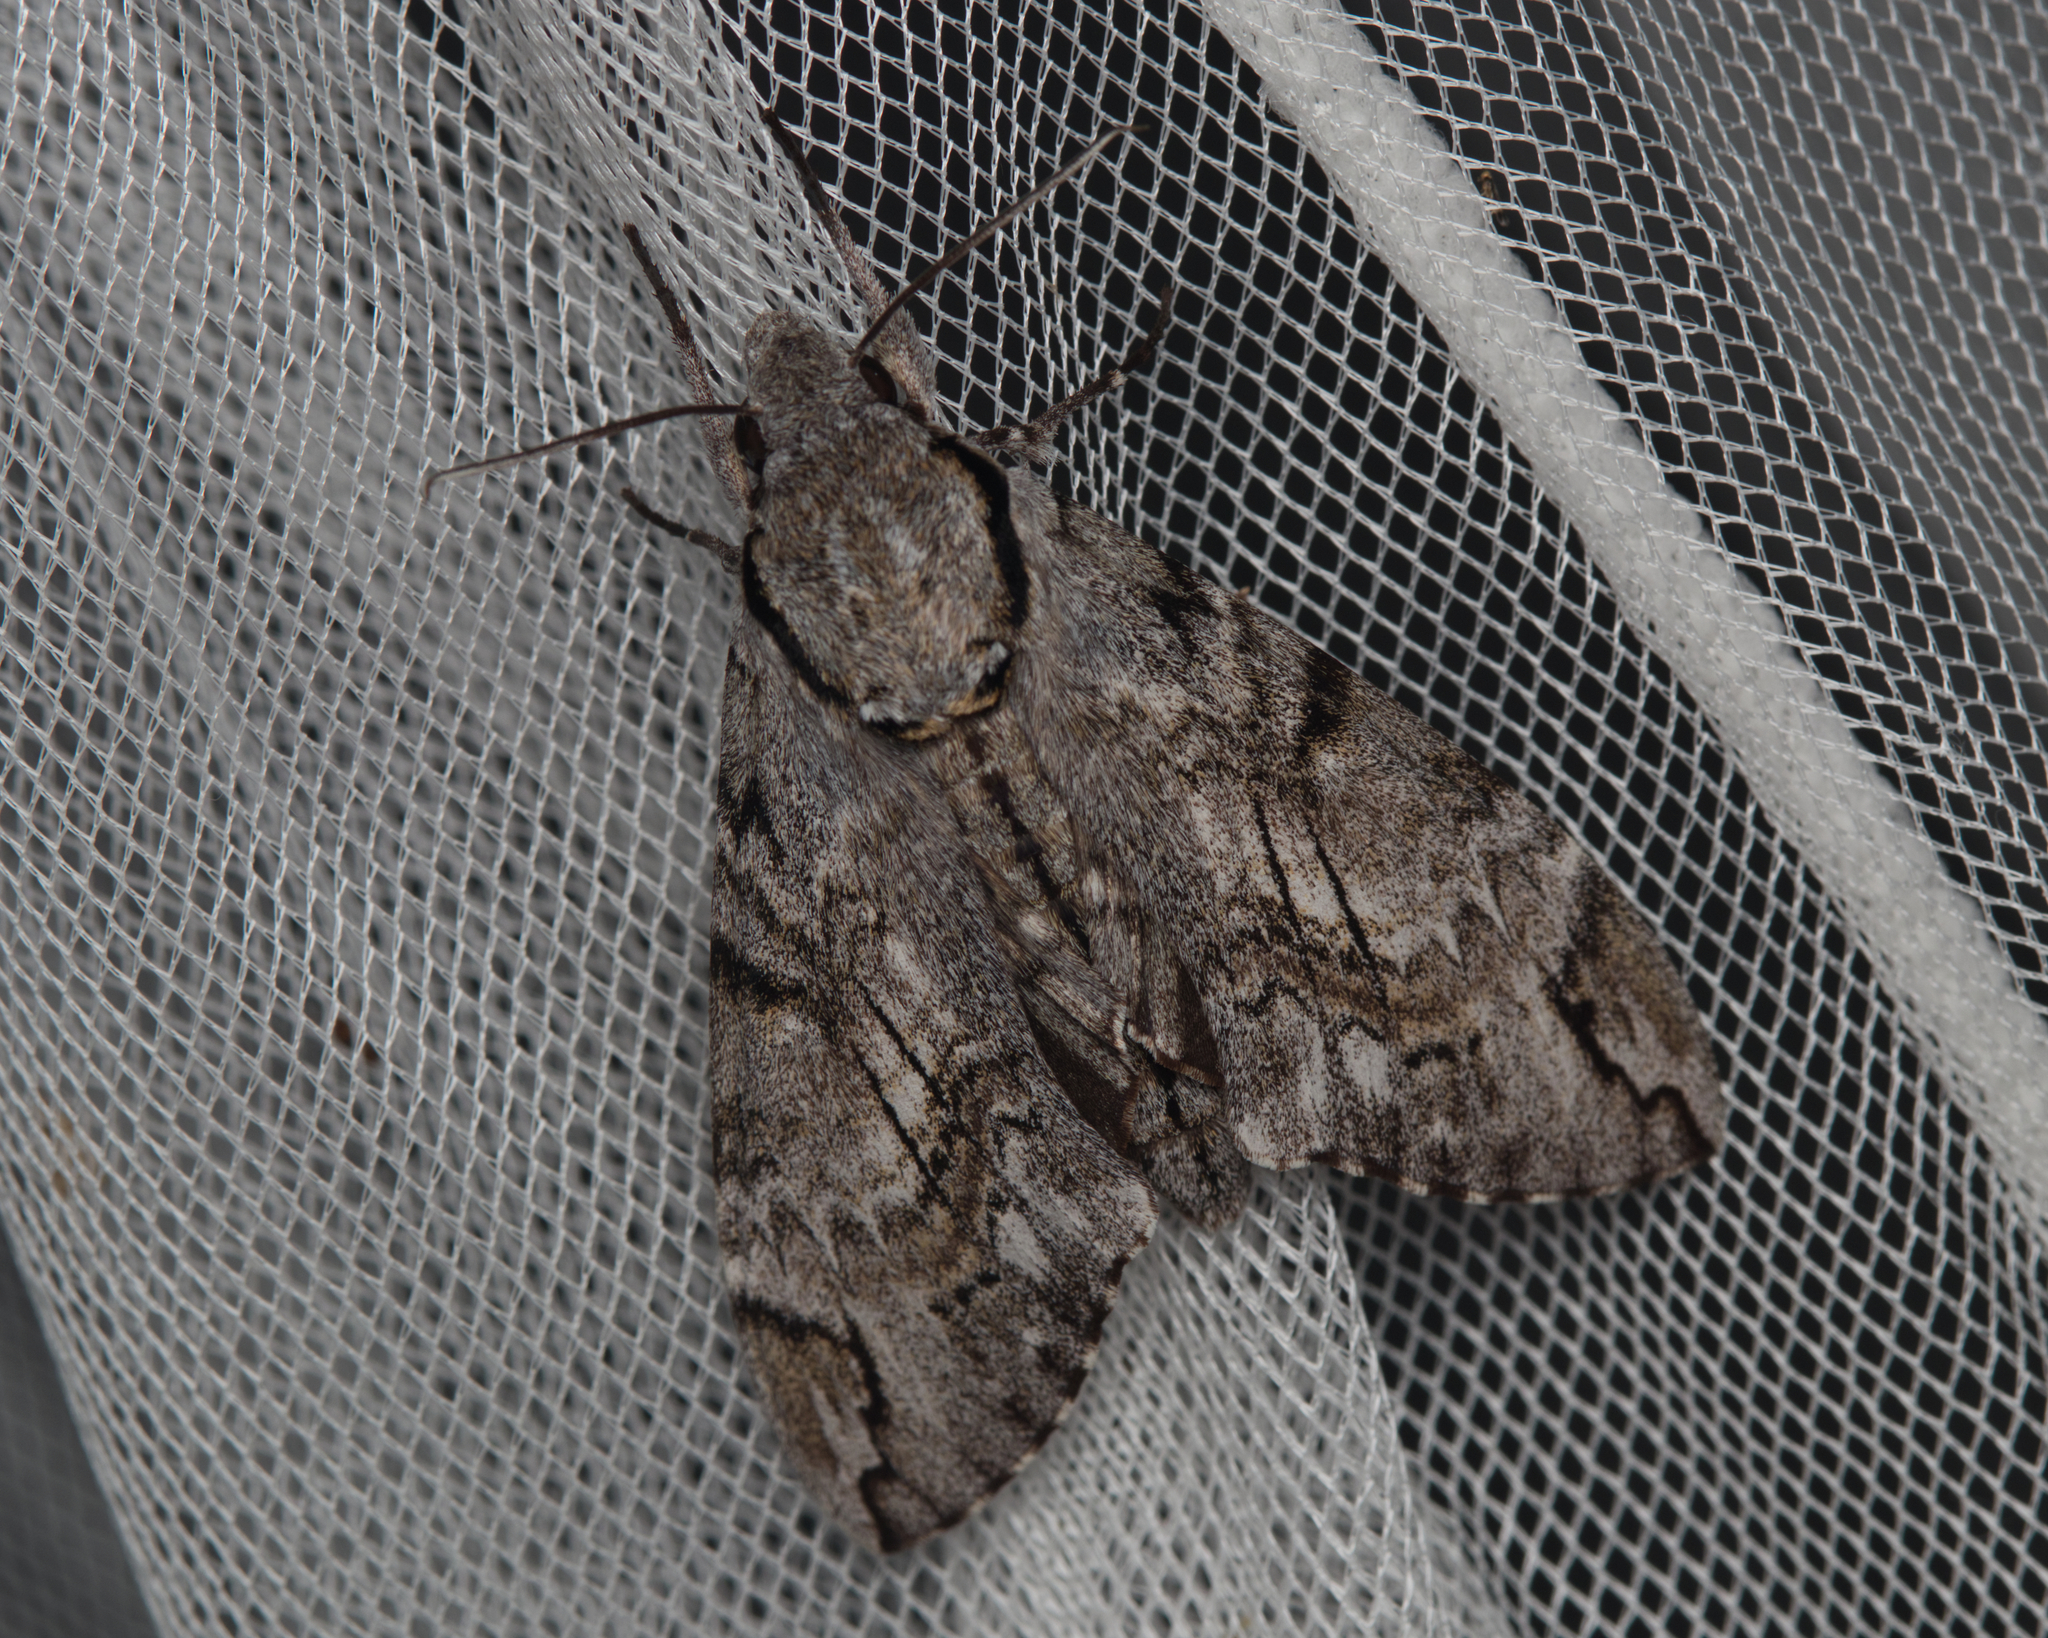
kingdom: Animalia
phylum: Arthropoda
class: Insecta
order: Lepidoptera
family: Sphingidae
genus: Psilogramma
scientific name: Psilogramma casuarinae
